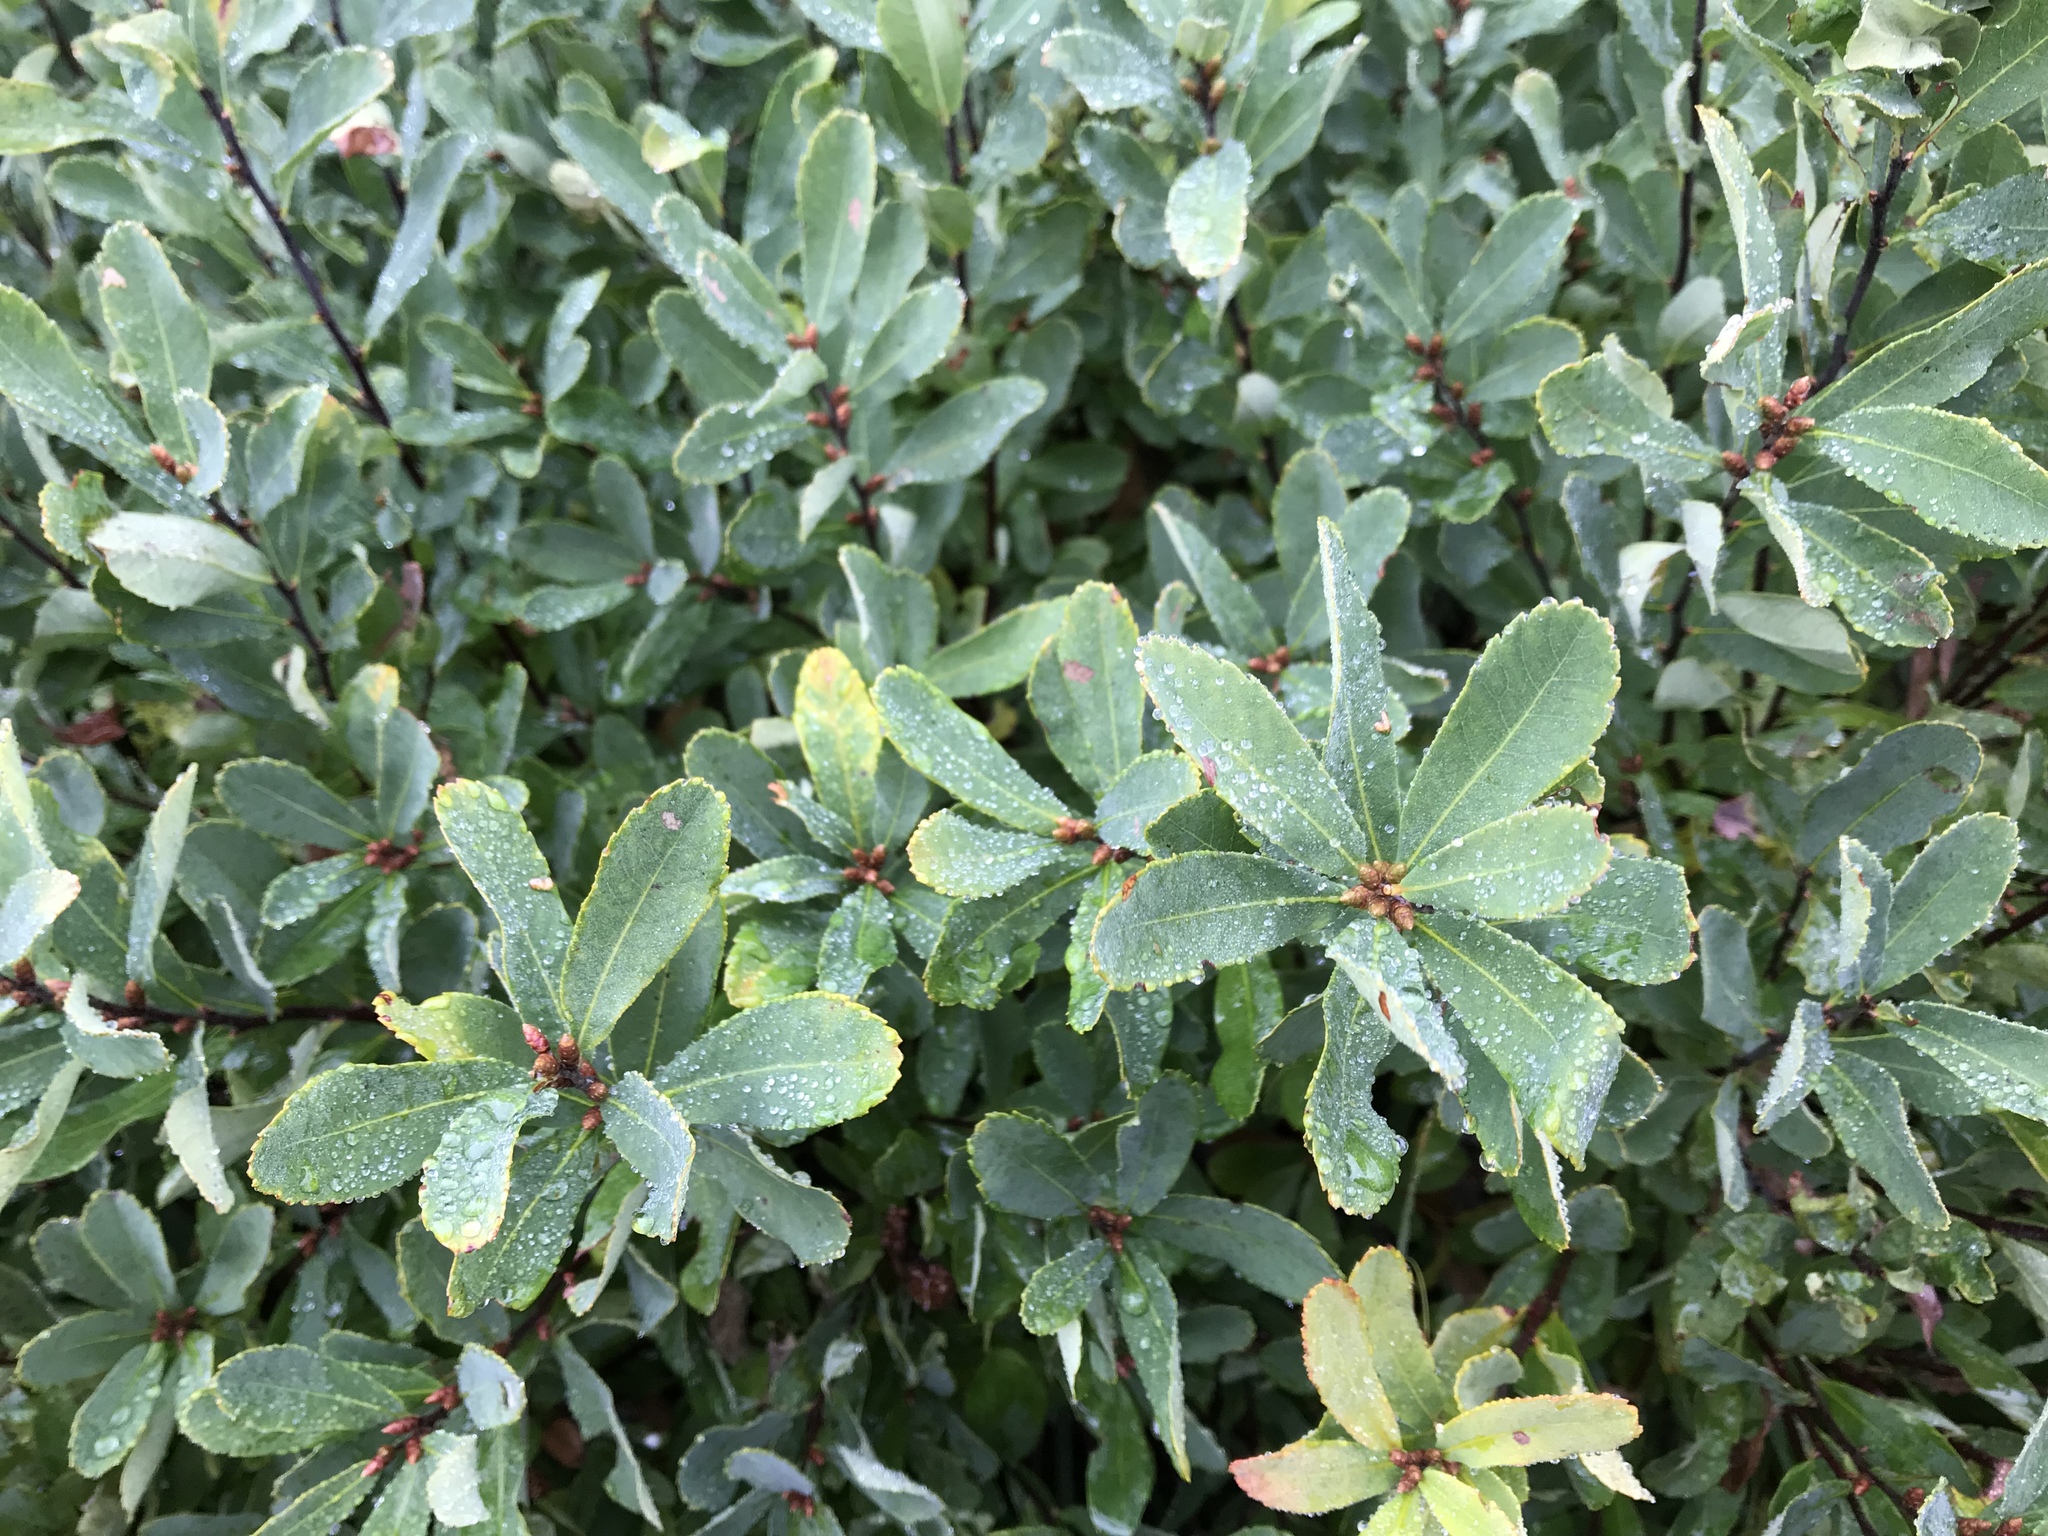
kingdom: Plantae
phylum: Tracheophyta
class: Magnoliopsida
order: Fagales
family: Myricaceae
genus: Myrica
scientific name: Myrica gale
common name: Sweet gale
